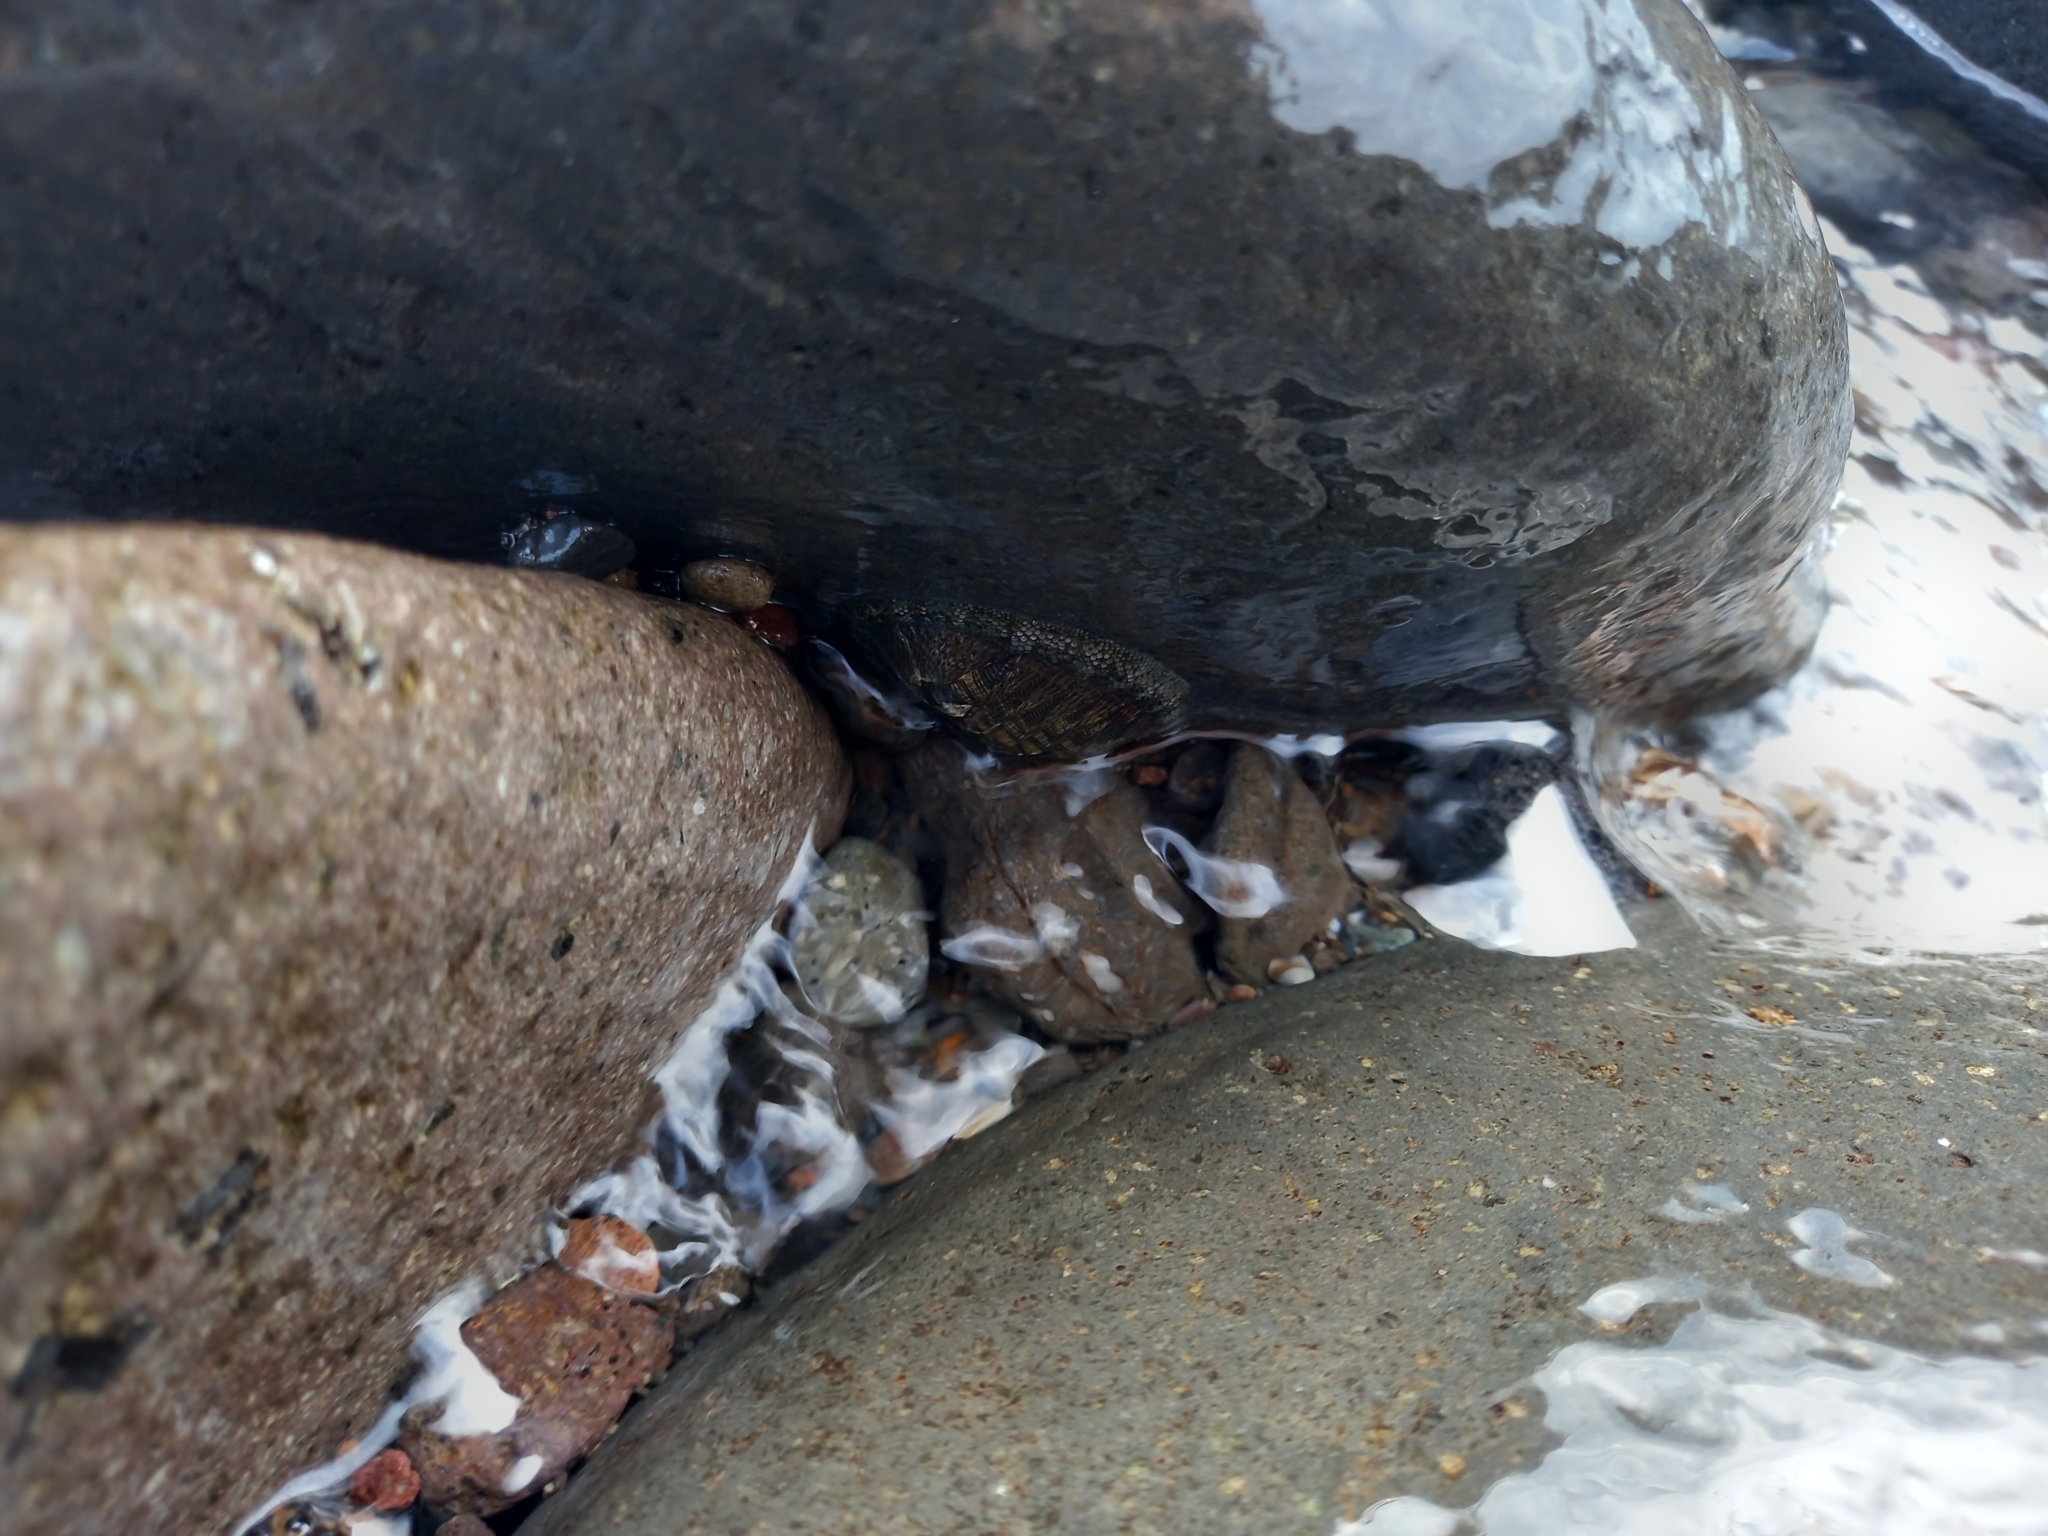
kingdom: Animalia
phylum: Mollusca
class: Polyplacophora
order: Chitonida
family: Chitonidae
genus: Chiton
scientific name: Chiton stokesii
